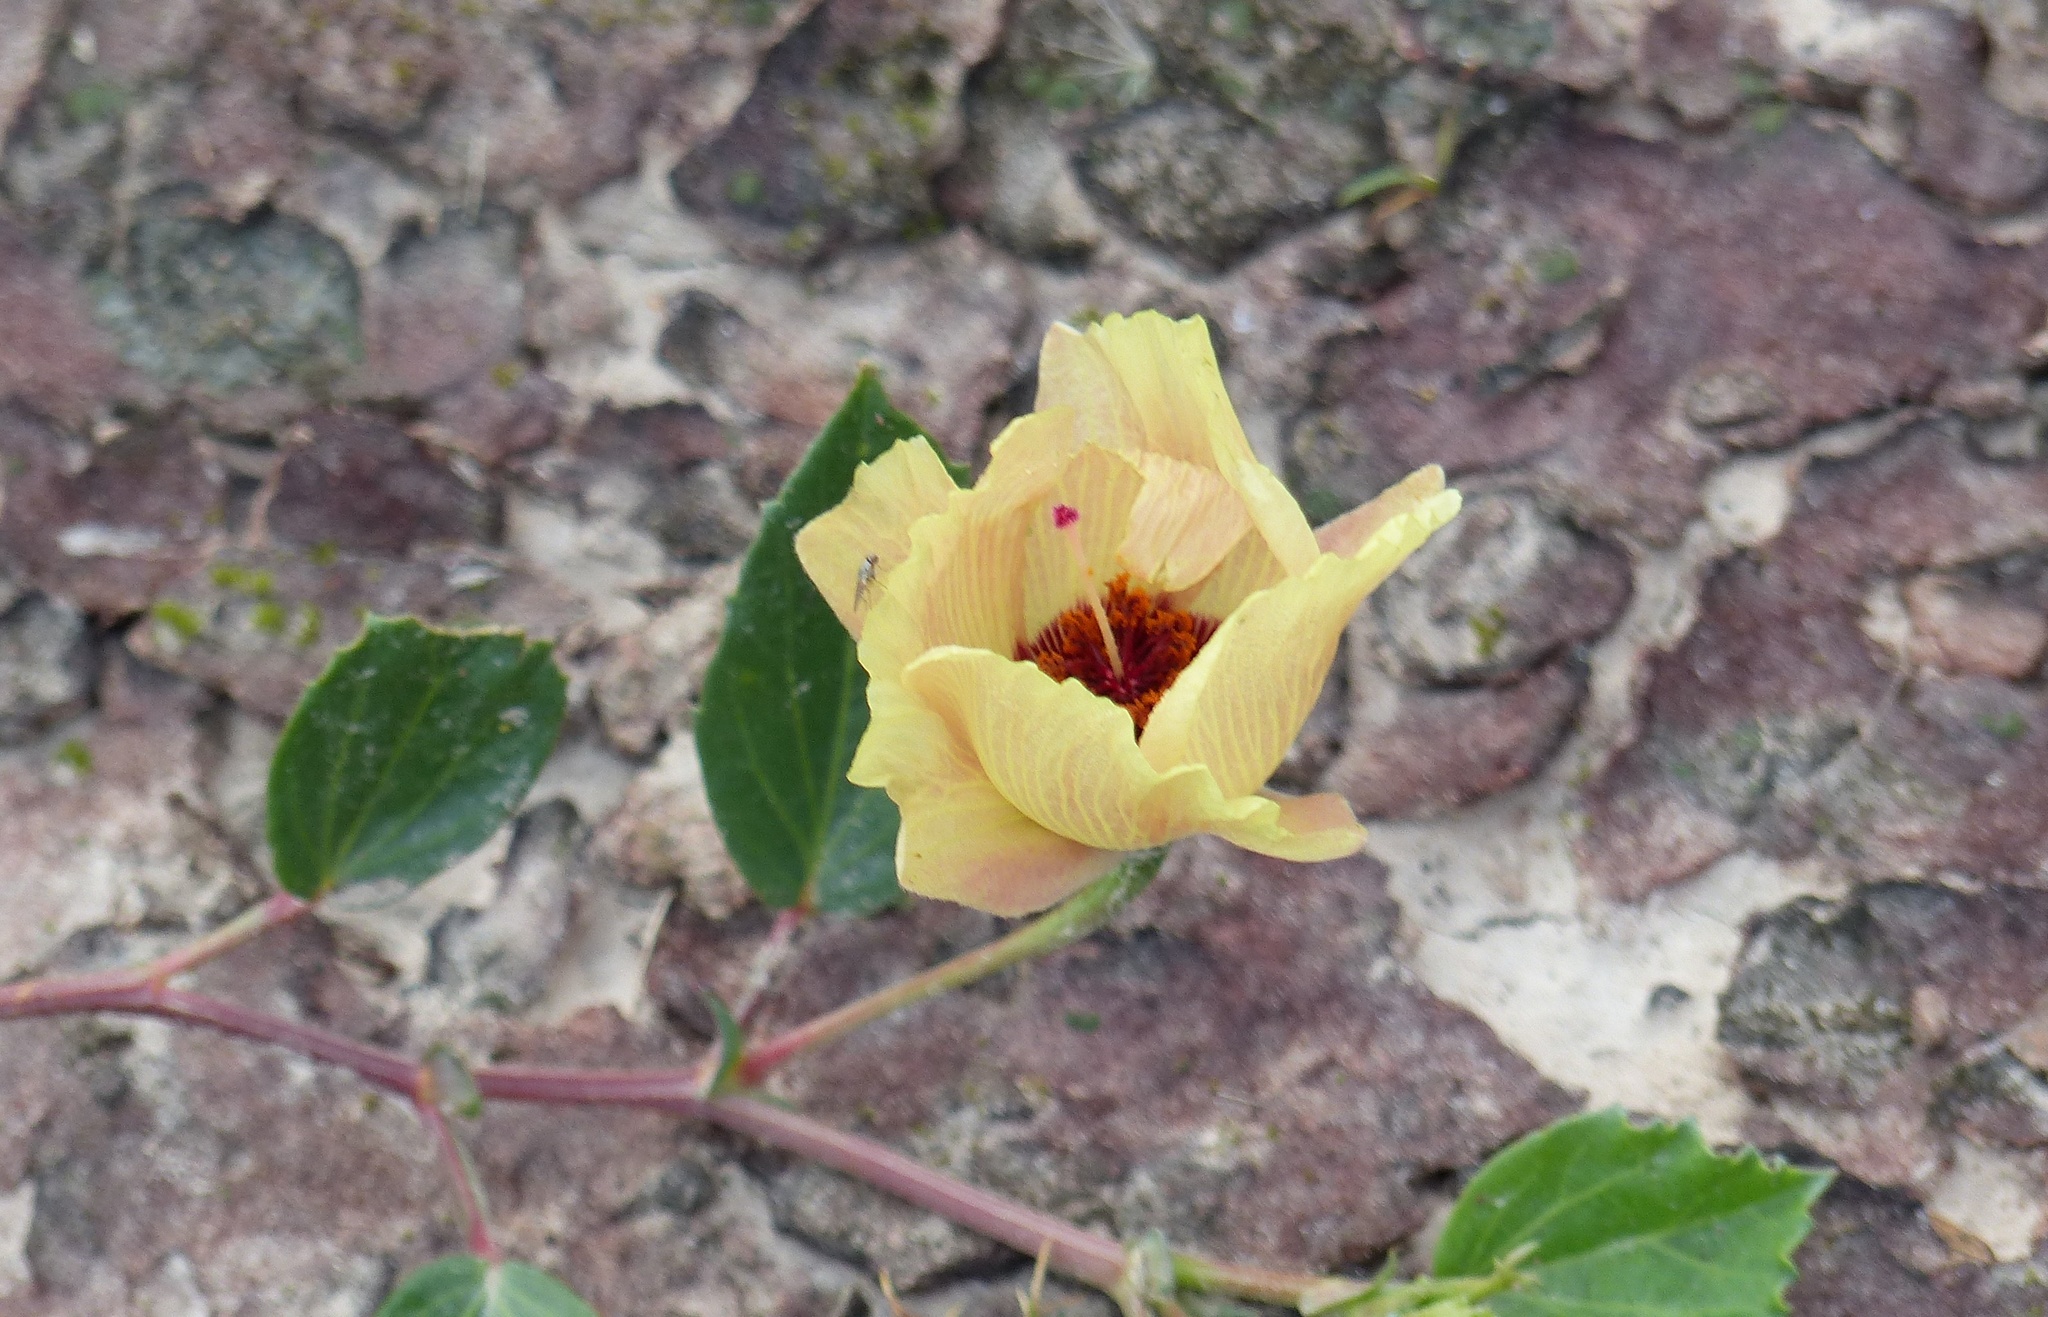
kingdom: Plantae
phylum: Tracheophyta
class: Magnoliopsida
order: Malvales
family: Malvaceae
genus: Cienfuegosia
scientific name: Cienfuegosia drummondii
